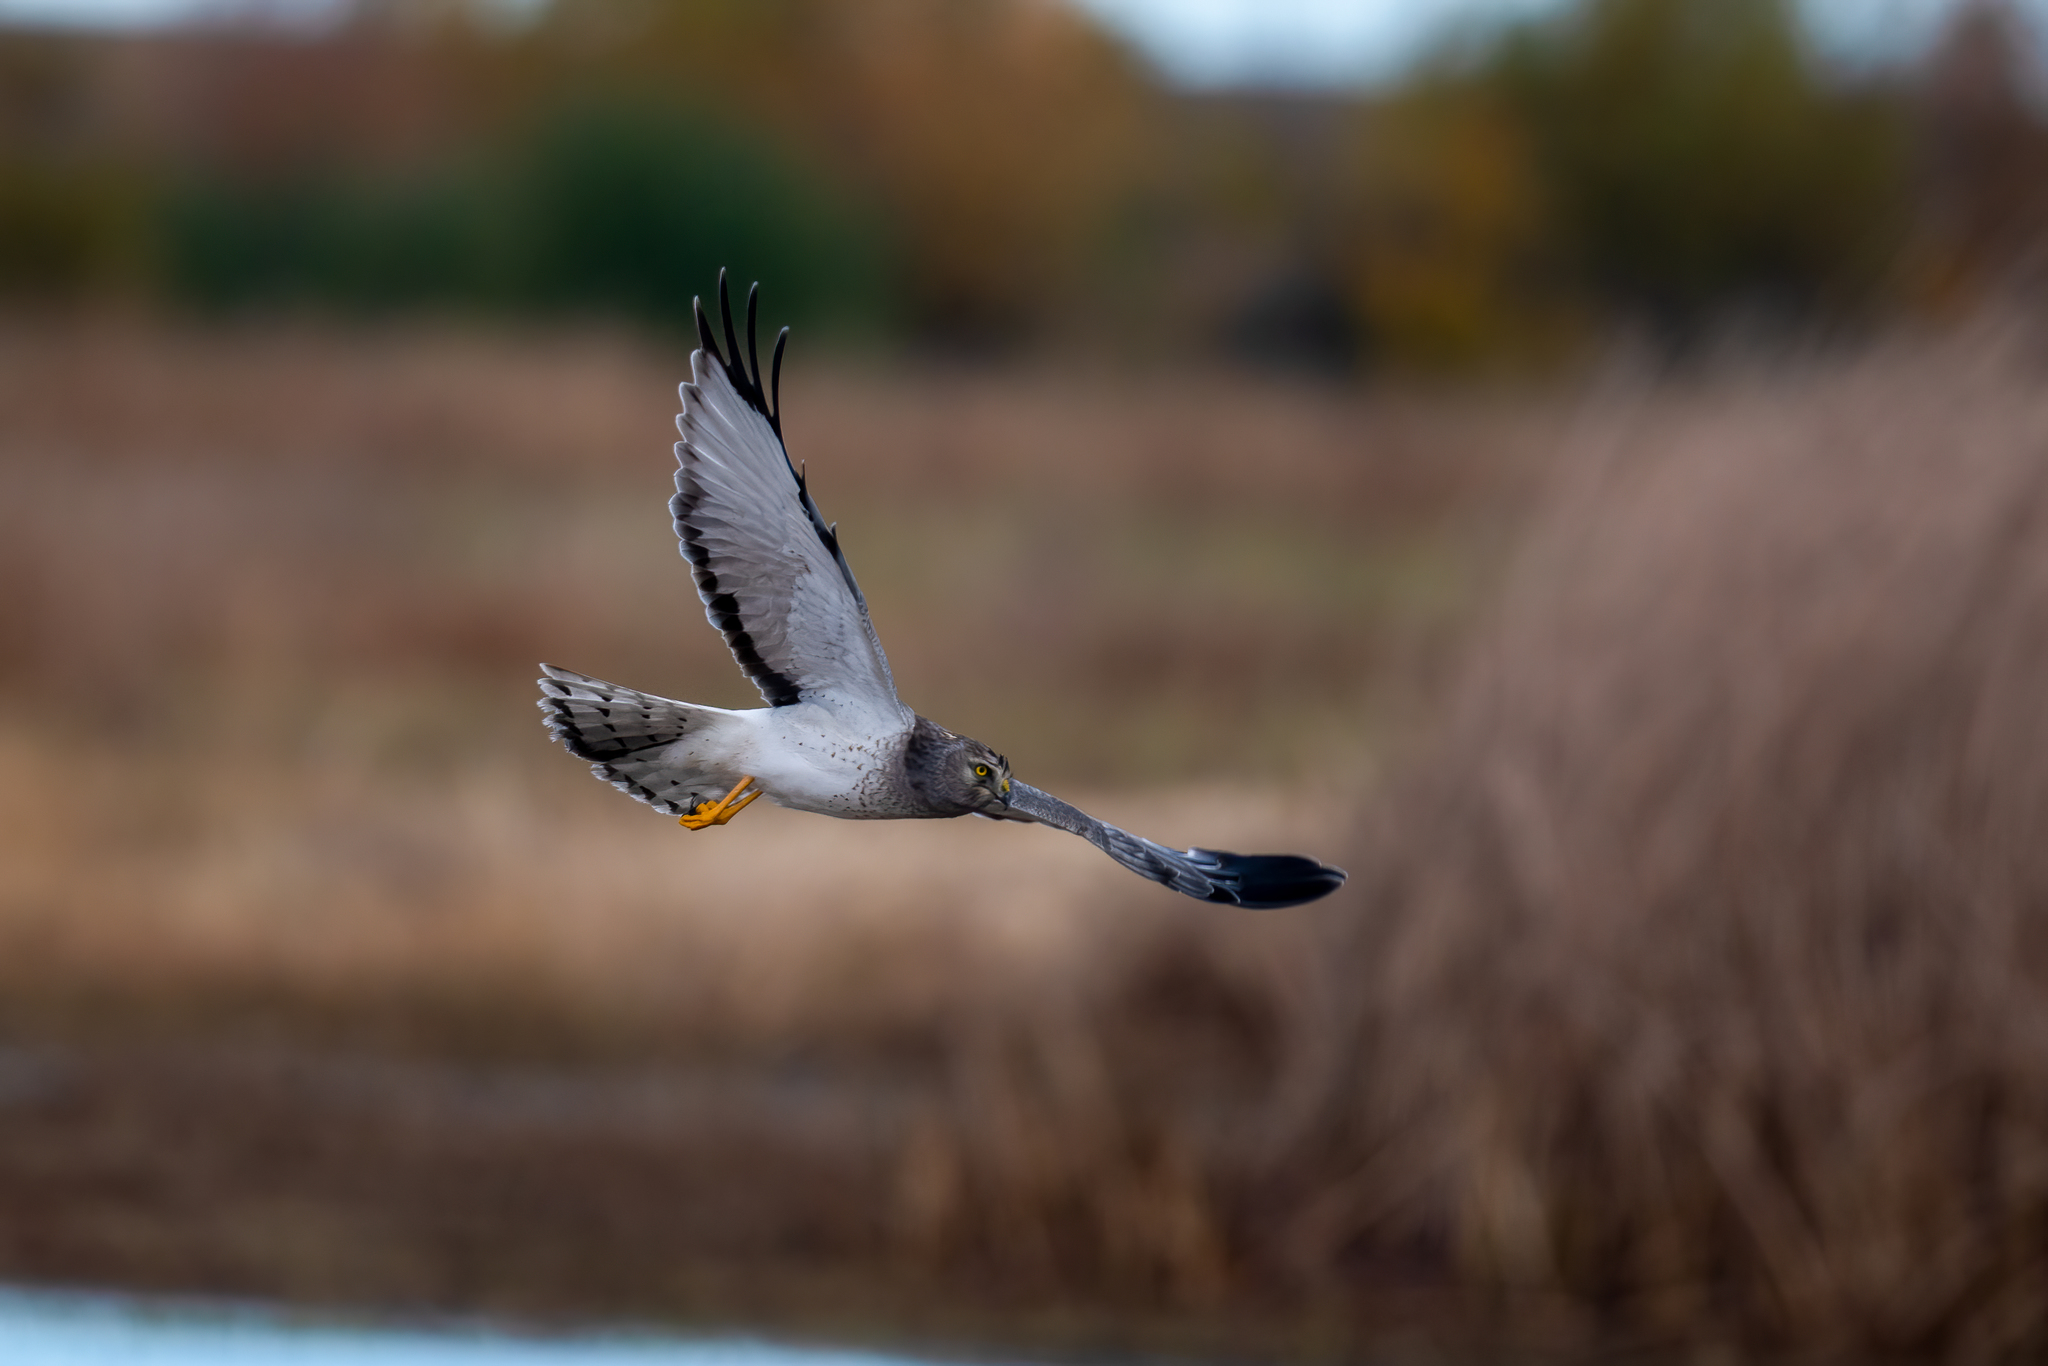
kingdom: Animalia
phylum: Chordata
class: Aves
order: Accipitriformes
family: Accipitridae
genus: Circus
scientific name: Circus cyaneus
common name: Hen harrier
